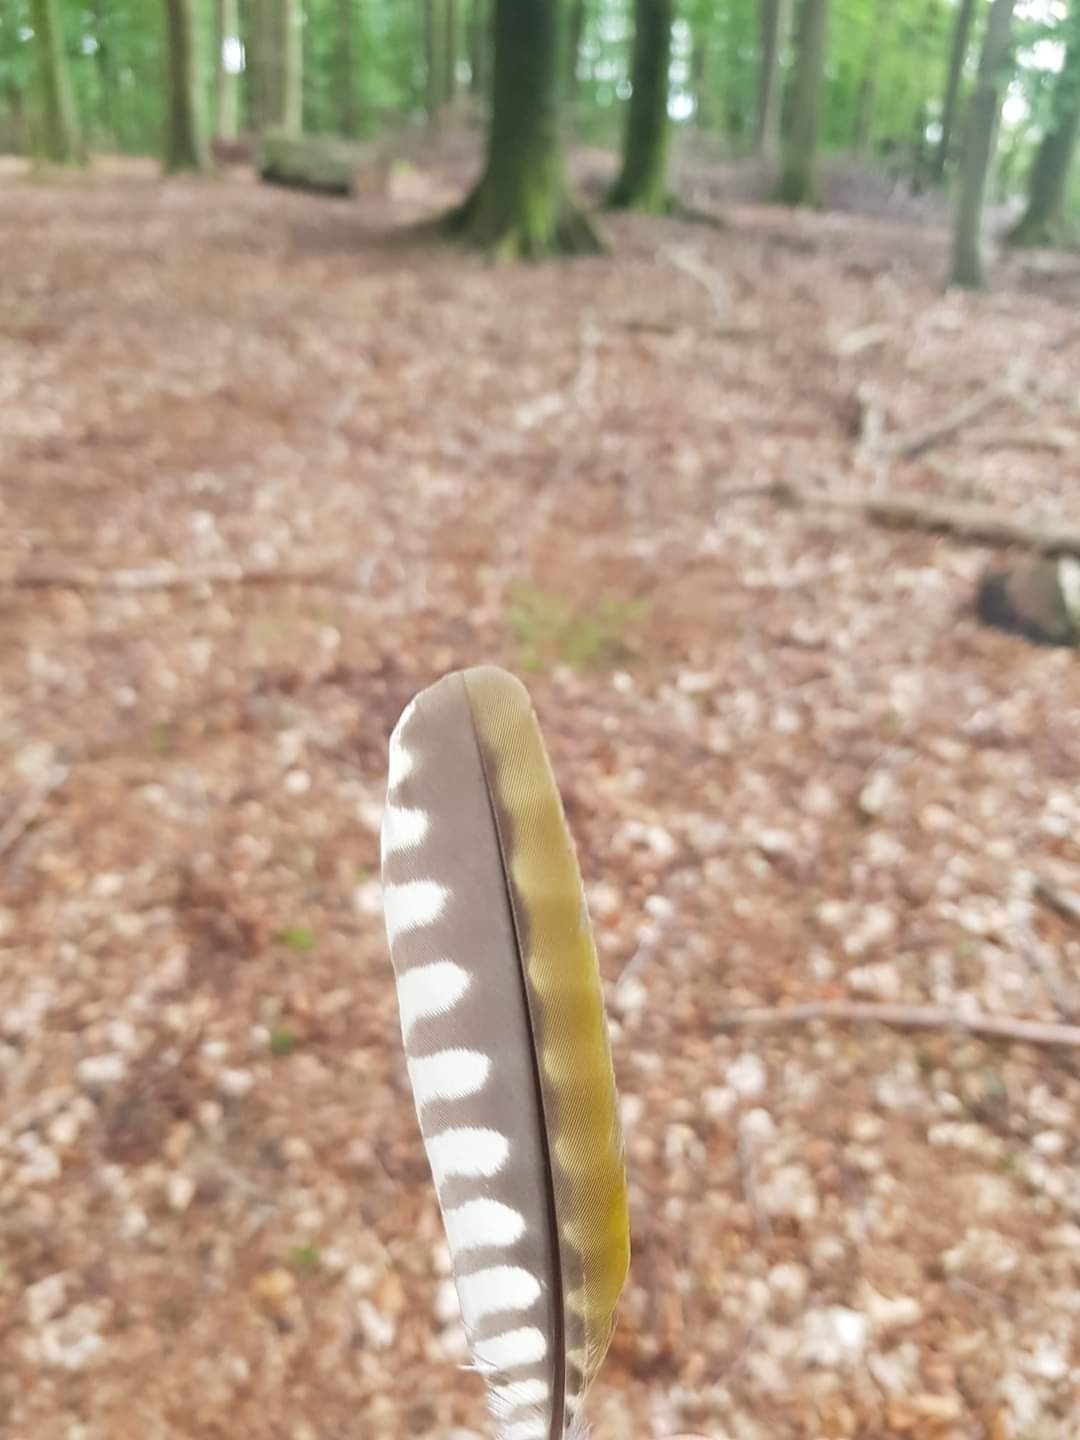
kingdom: Animalia
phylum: Chordata
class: Aves
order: Piciformes
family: Picidae
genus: Picus
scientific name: Picus viridis
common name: European green woodpecker
